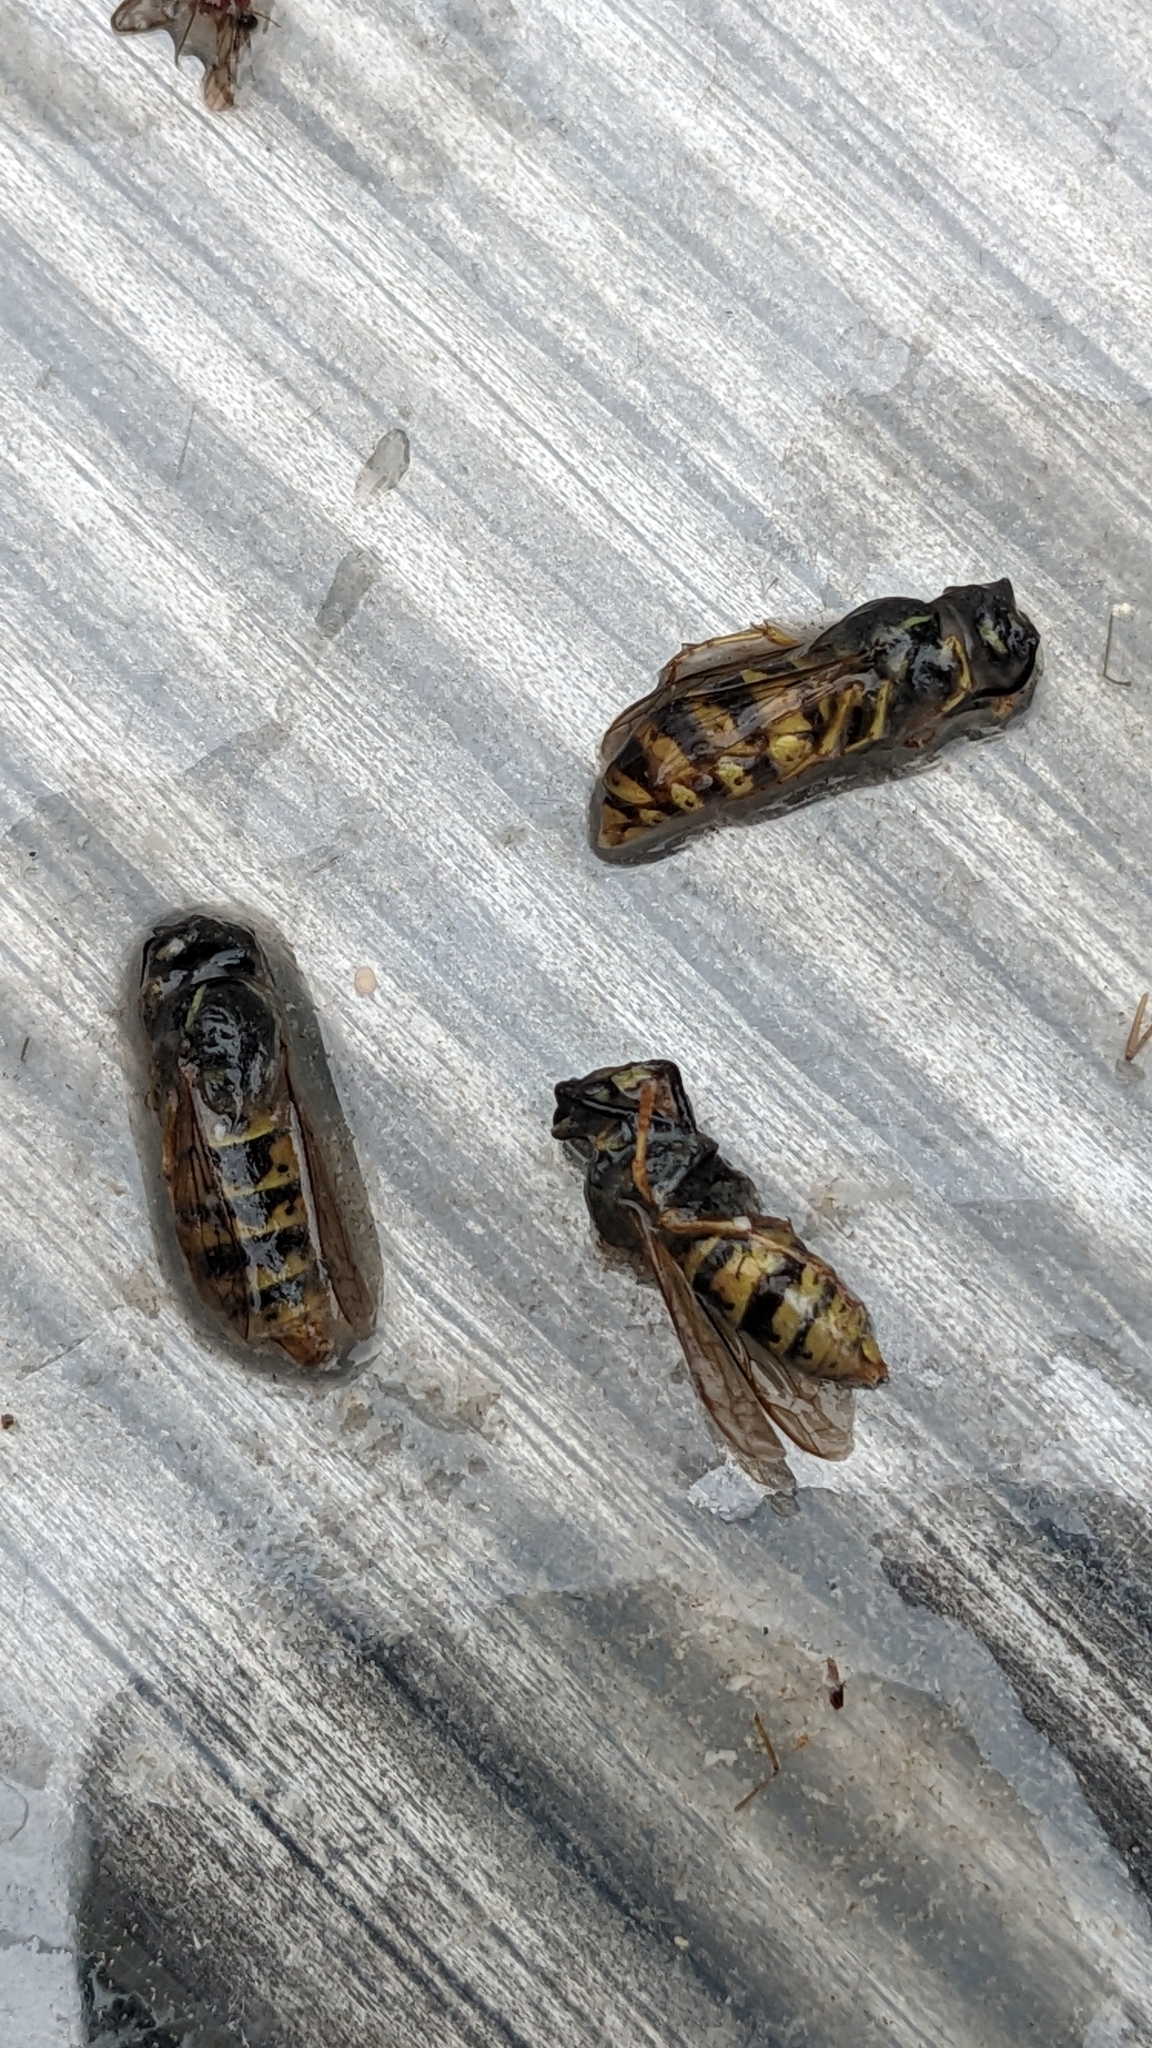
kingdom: Animalia
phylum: Arthropoda
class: Insecta
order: Hymenoptera
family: Vespidae
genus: Vespula
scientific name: Vespula vulgaris
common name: Common wasp
